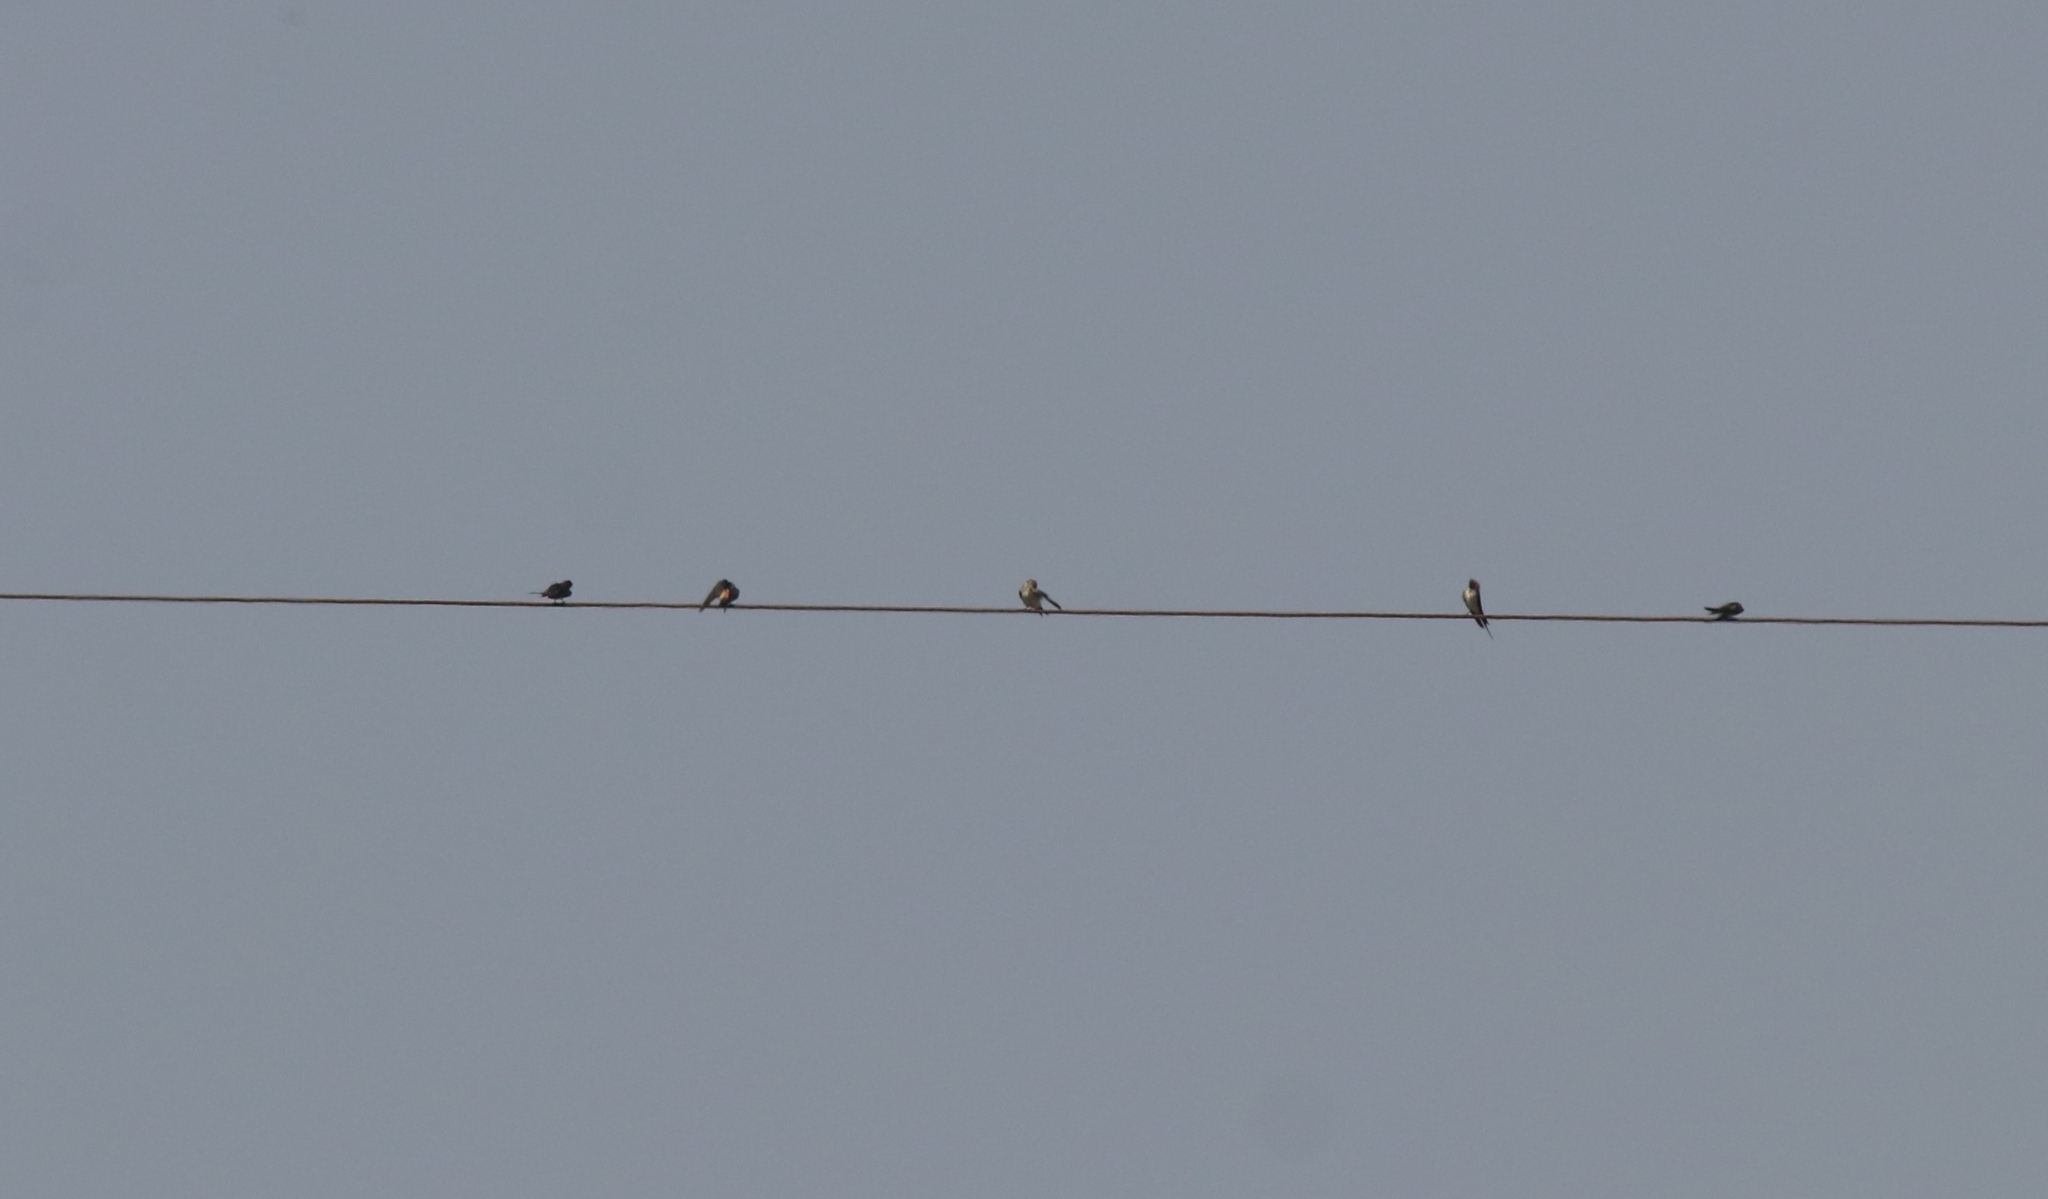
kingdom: Animalia
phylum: Chordata
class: Aves
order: Passeriformes
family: Hirundinidae
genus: Cecropis
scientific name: Cecropis daurica
